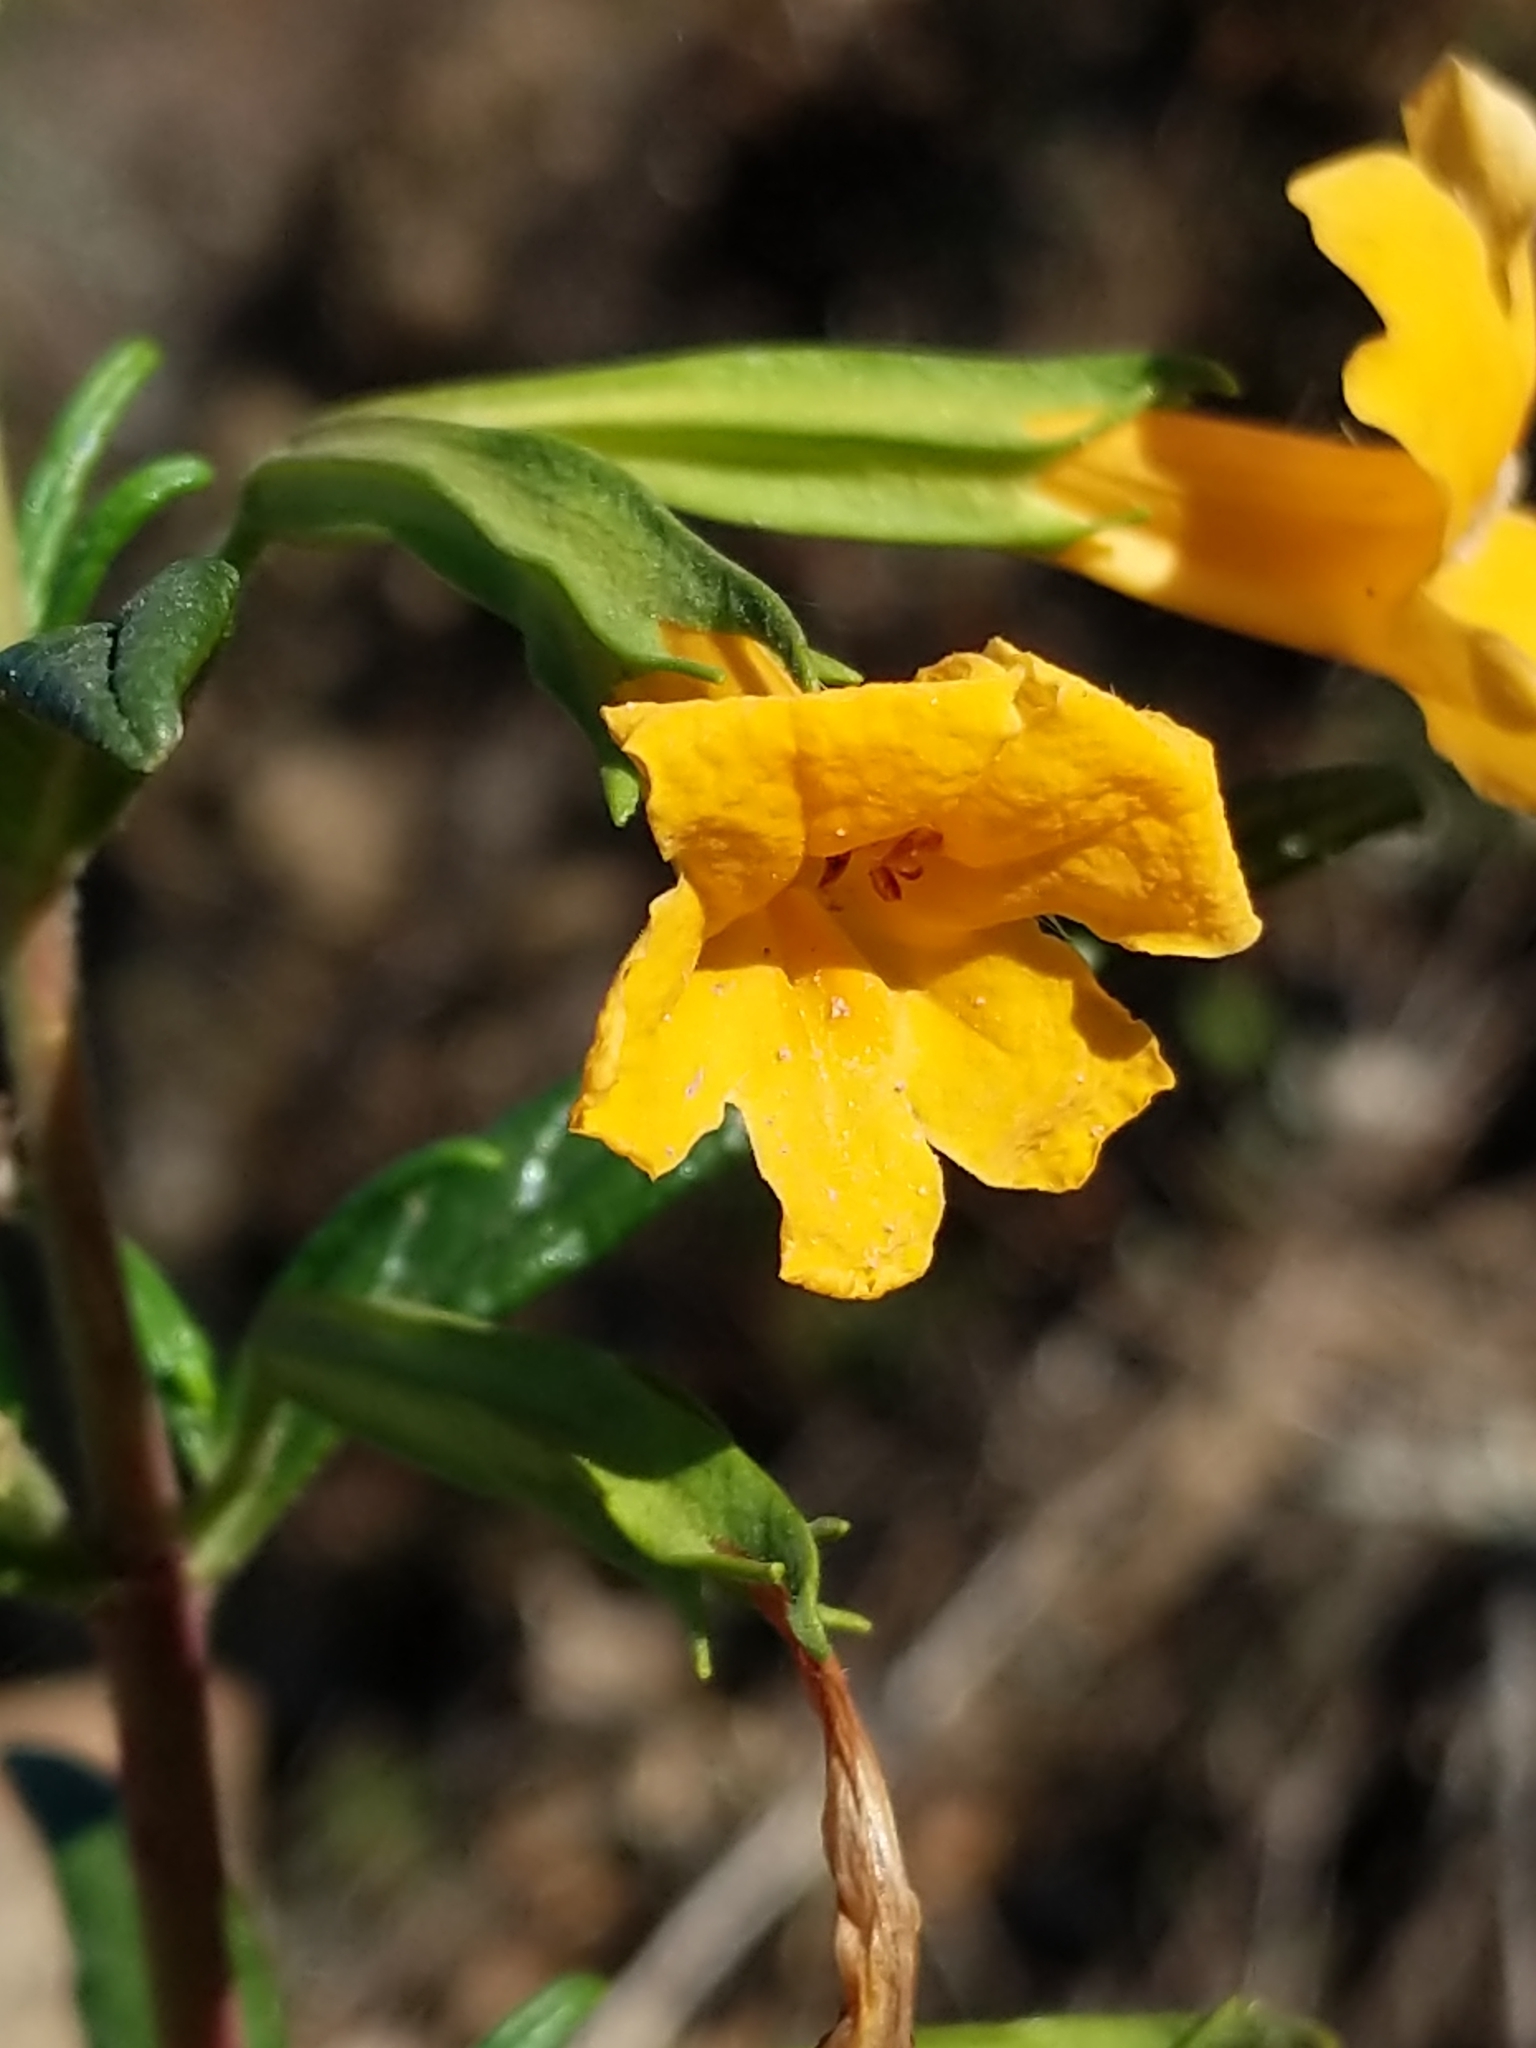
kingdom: Plantae
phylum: Tracheophyta
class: Magnoliopsida
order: Lamiales
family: Phrymaceae
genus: Diplacus
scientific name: Diplacus aurantiacus
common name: Bush monkey-flower
